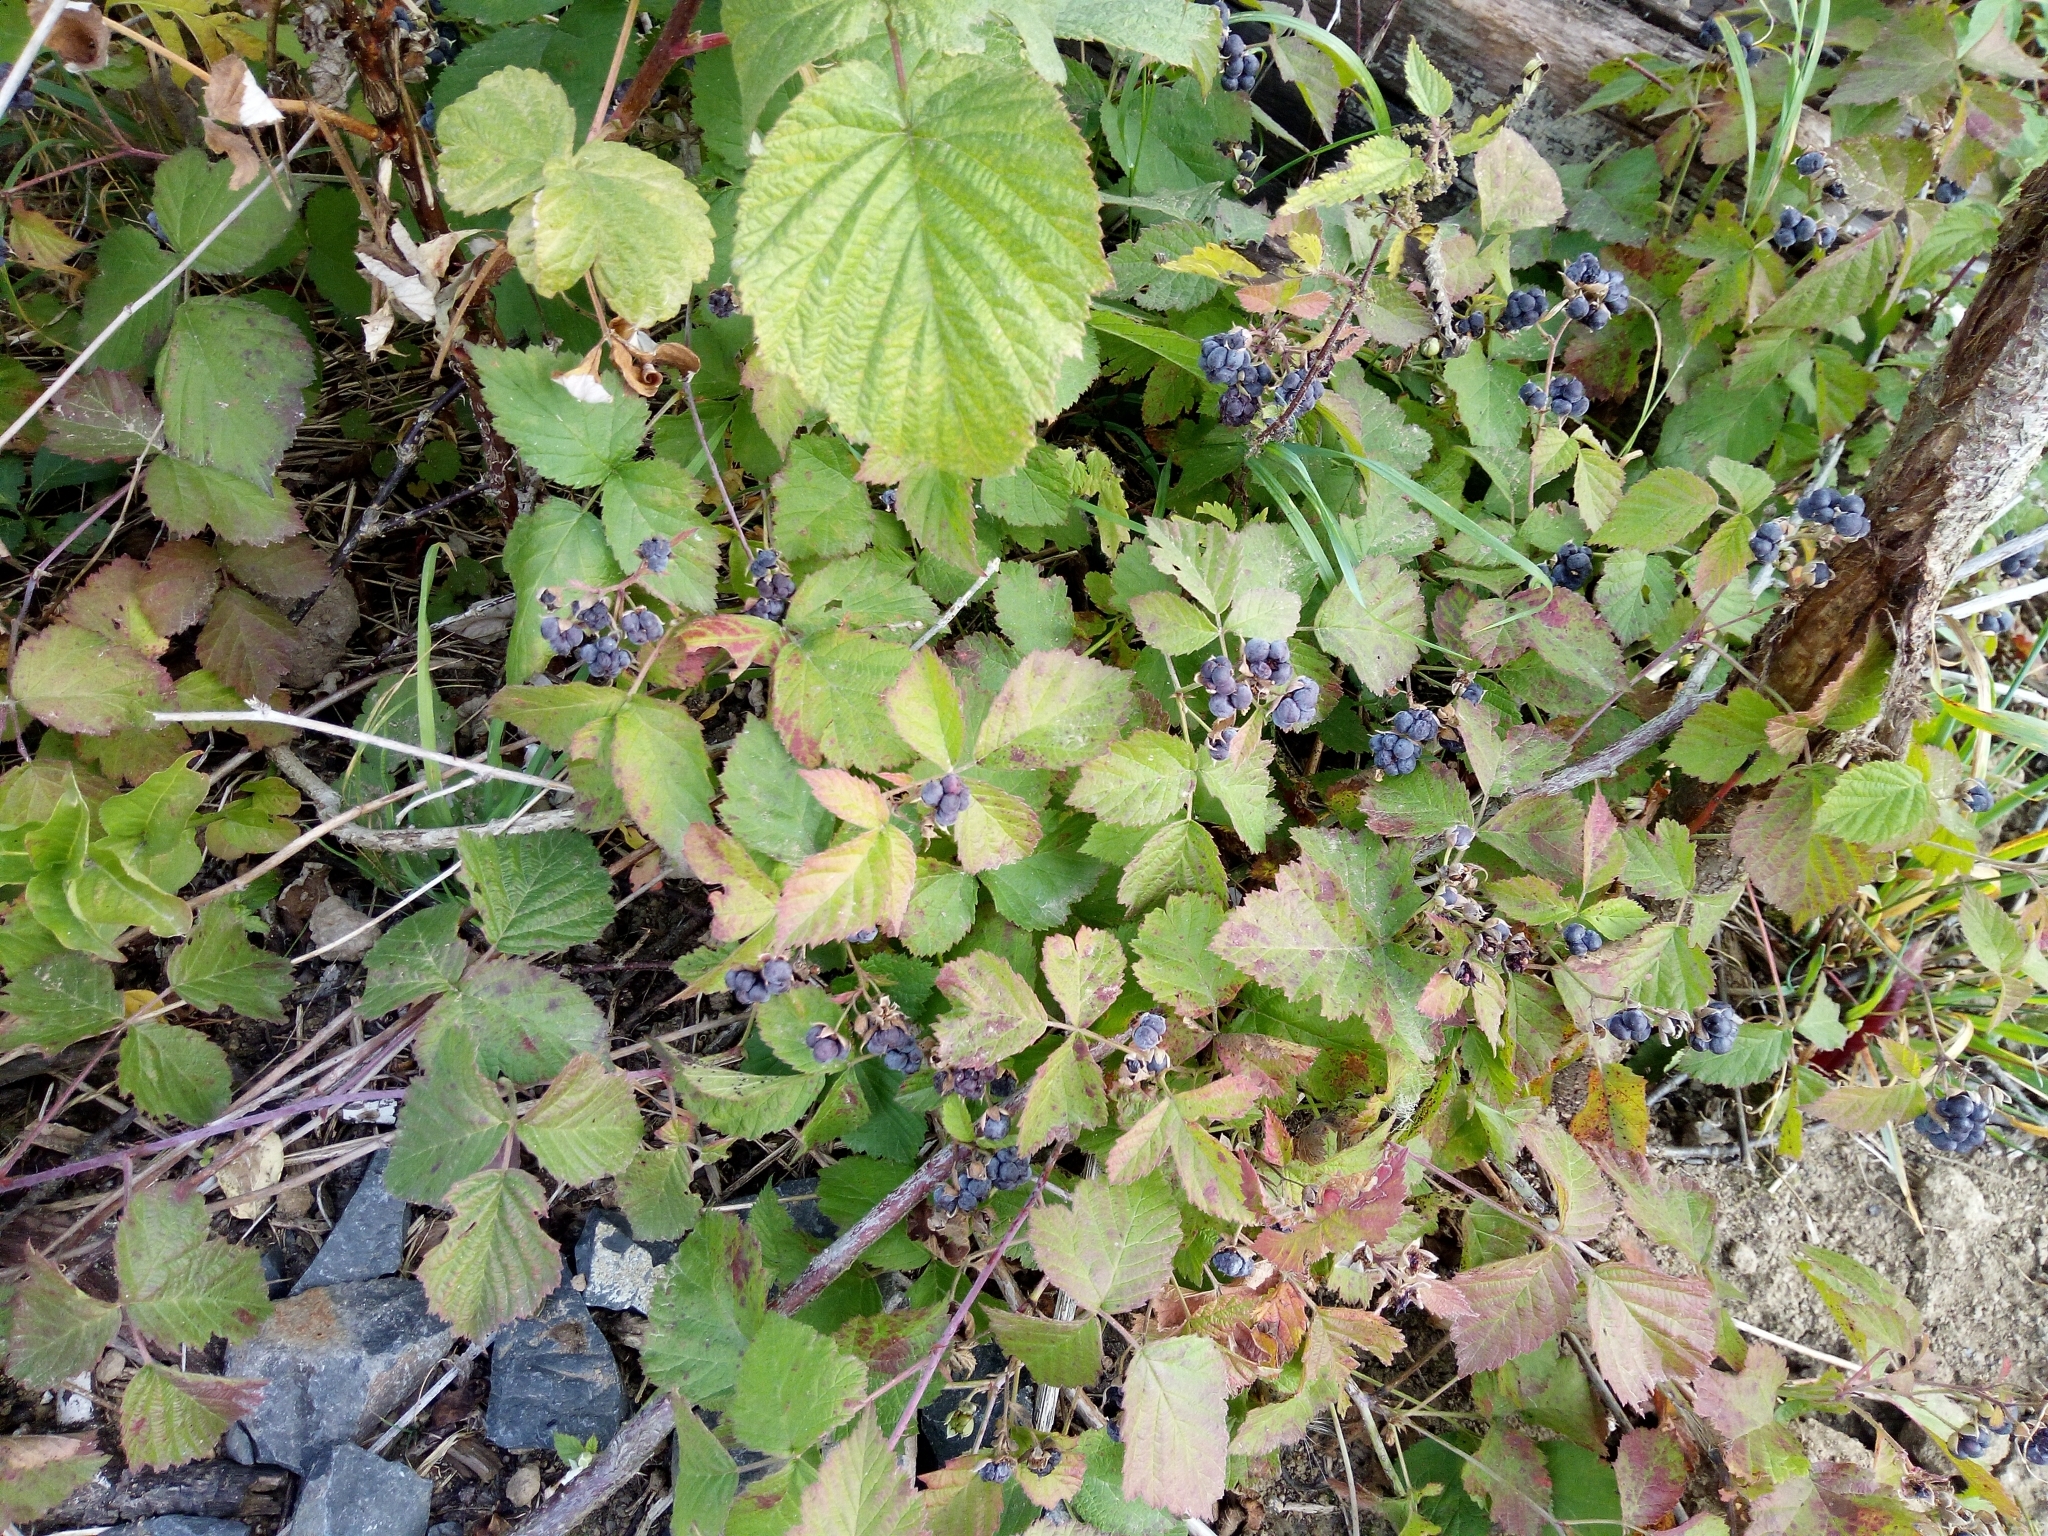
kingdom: Plantae
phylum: Tracheophyta
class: Magnoliopsida
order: Rosales
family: Rosaceae
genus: Rubus
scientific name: Rubus caesius
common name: Dewberry
